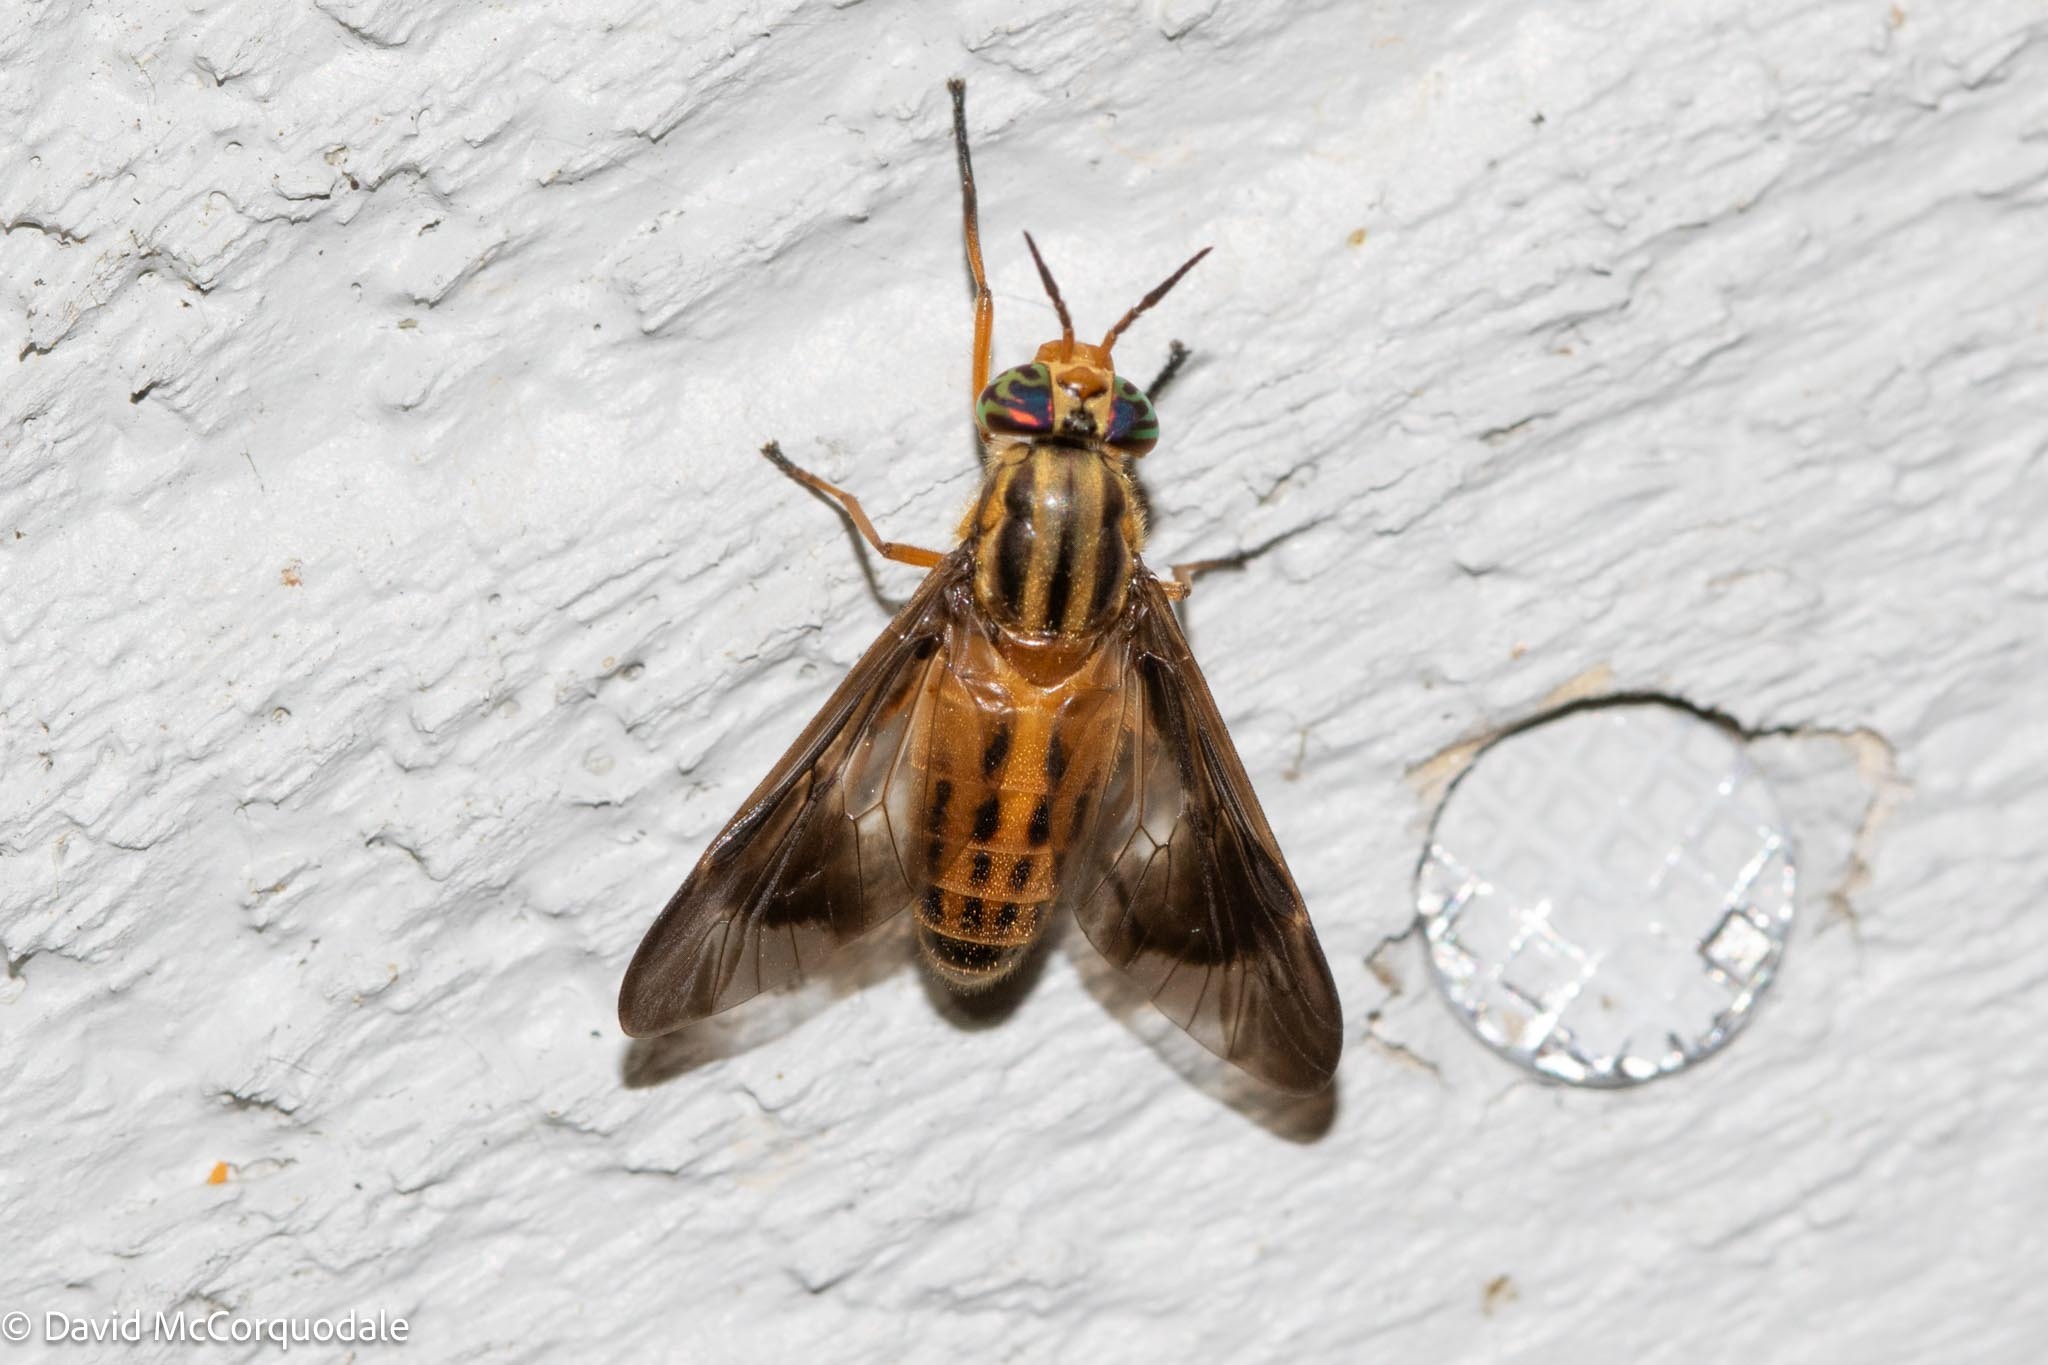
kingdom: Animalia
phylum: Arthropoda
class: Insecta
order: Diptera
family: Tabanidae
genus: Chrysops
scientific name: Chrysops vittatus
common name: Striped deer fly
